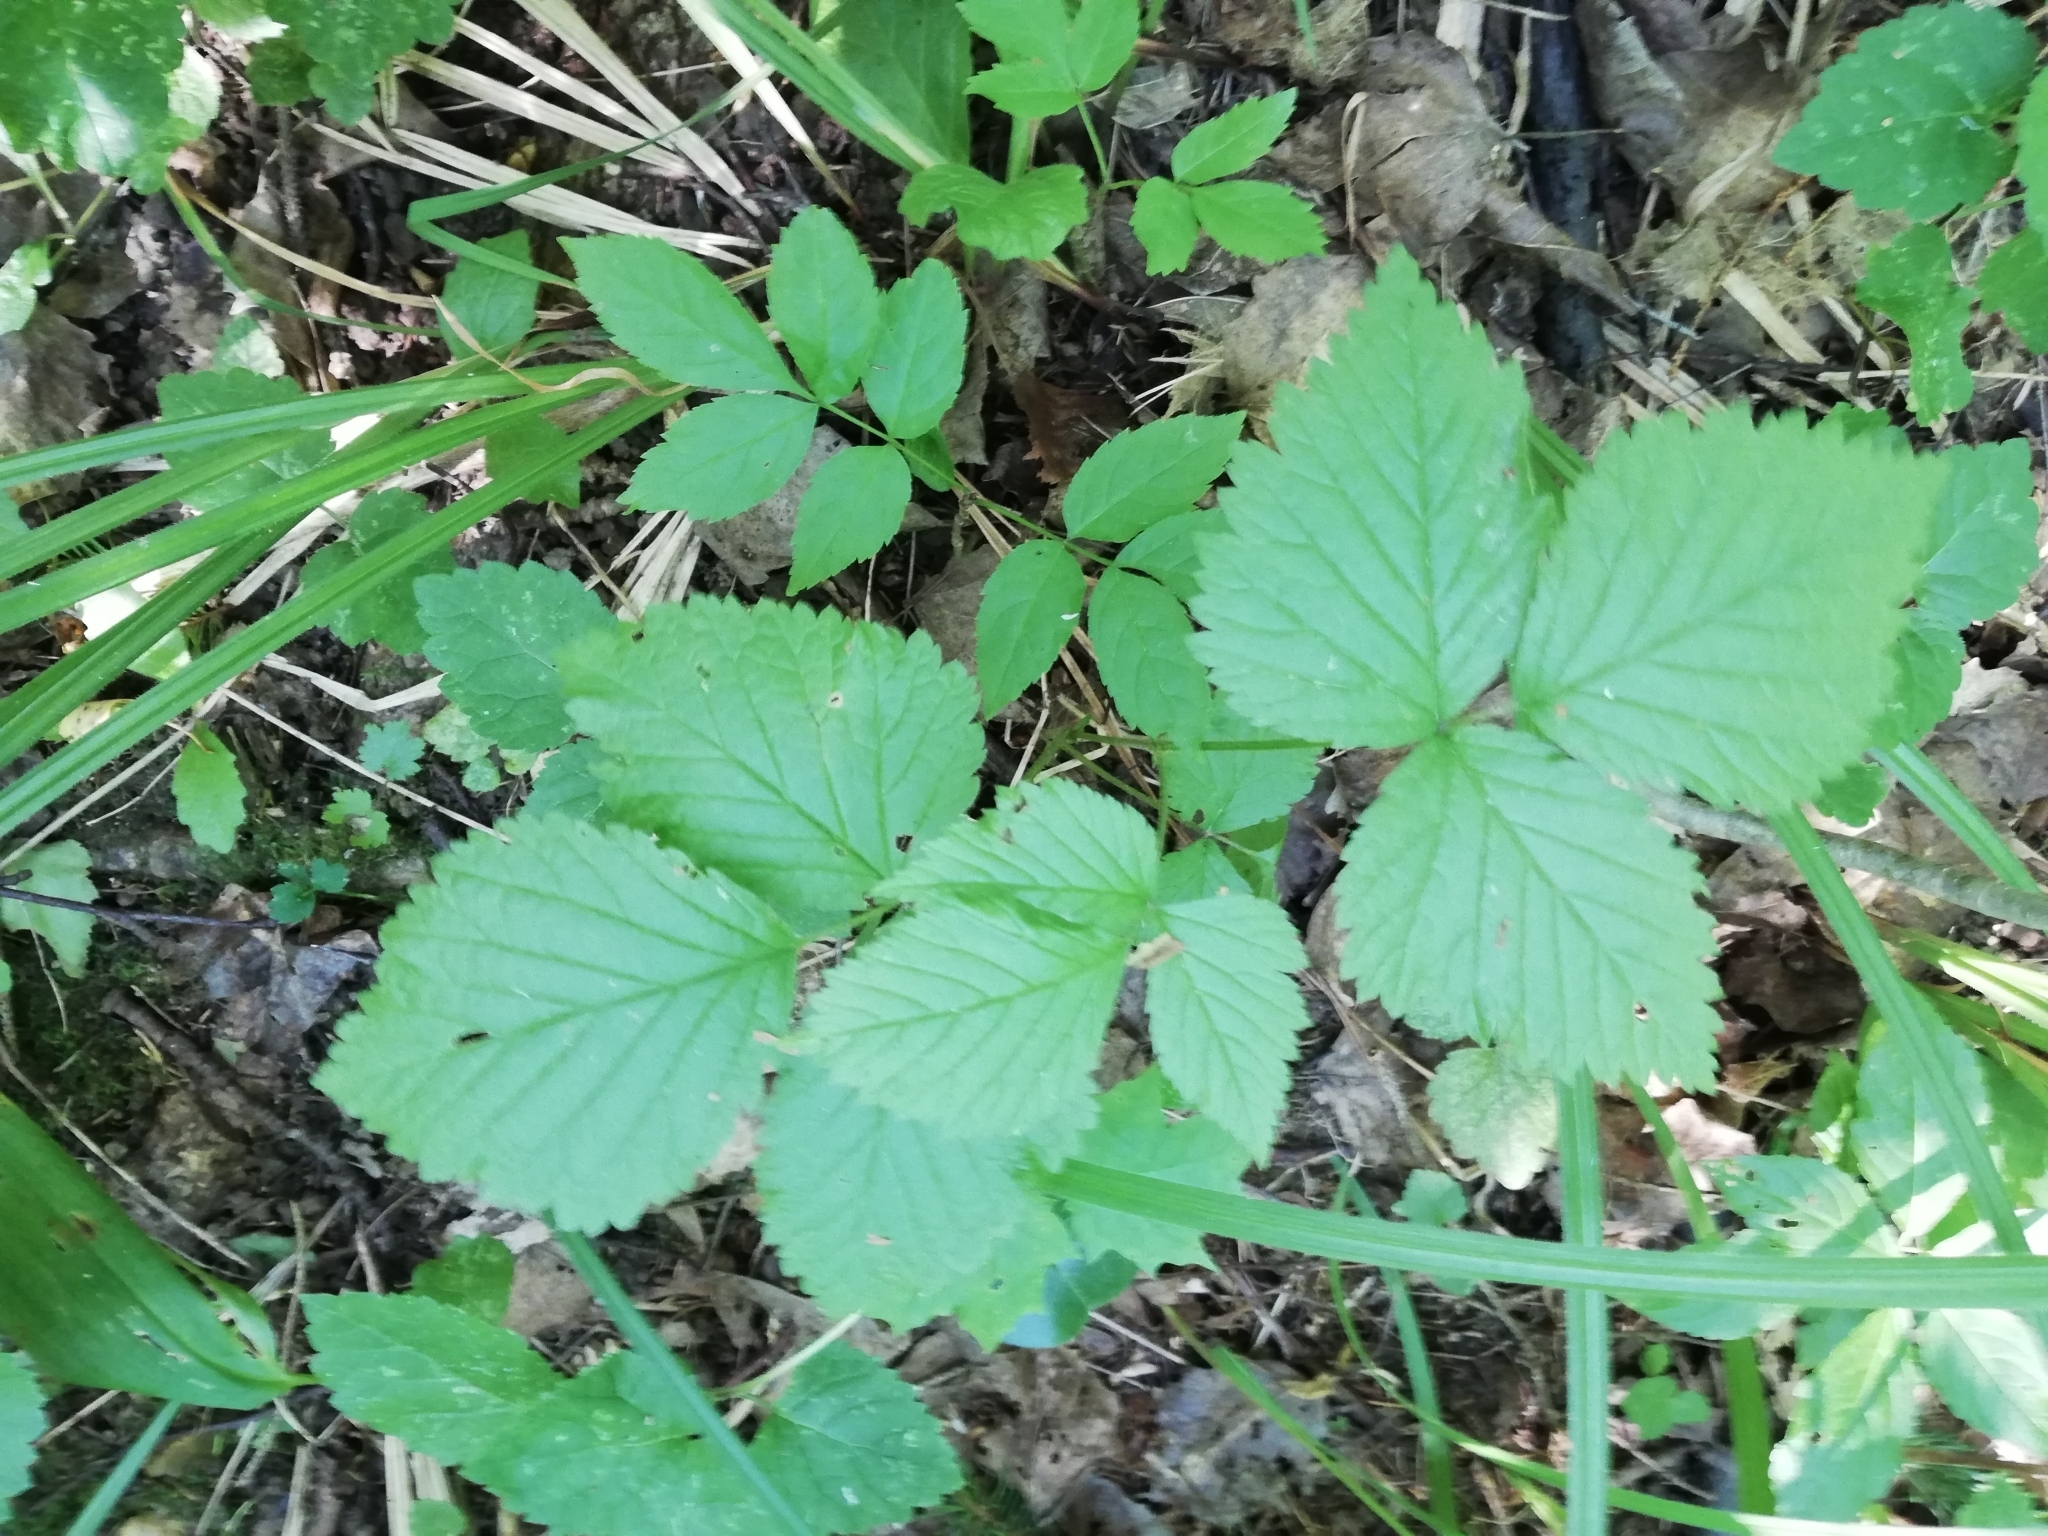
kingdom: Plantae
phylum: Tracheophyta
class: Magnoliopsida
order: Rosales
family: Rosaceae
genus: Rubus
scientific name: Rubus saxatilis
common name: Stone bramble
